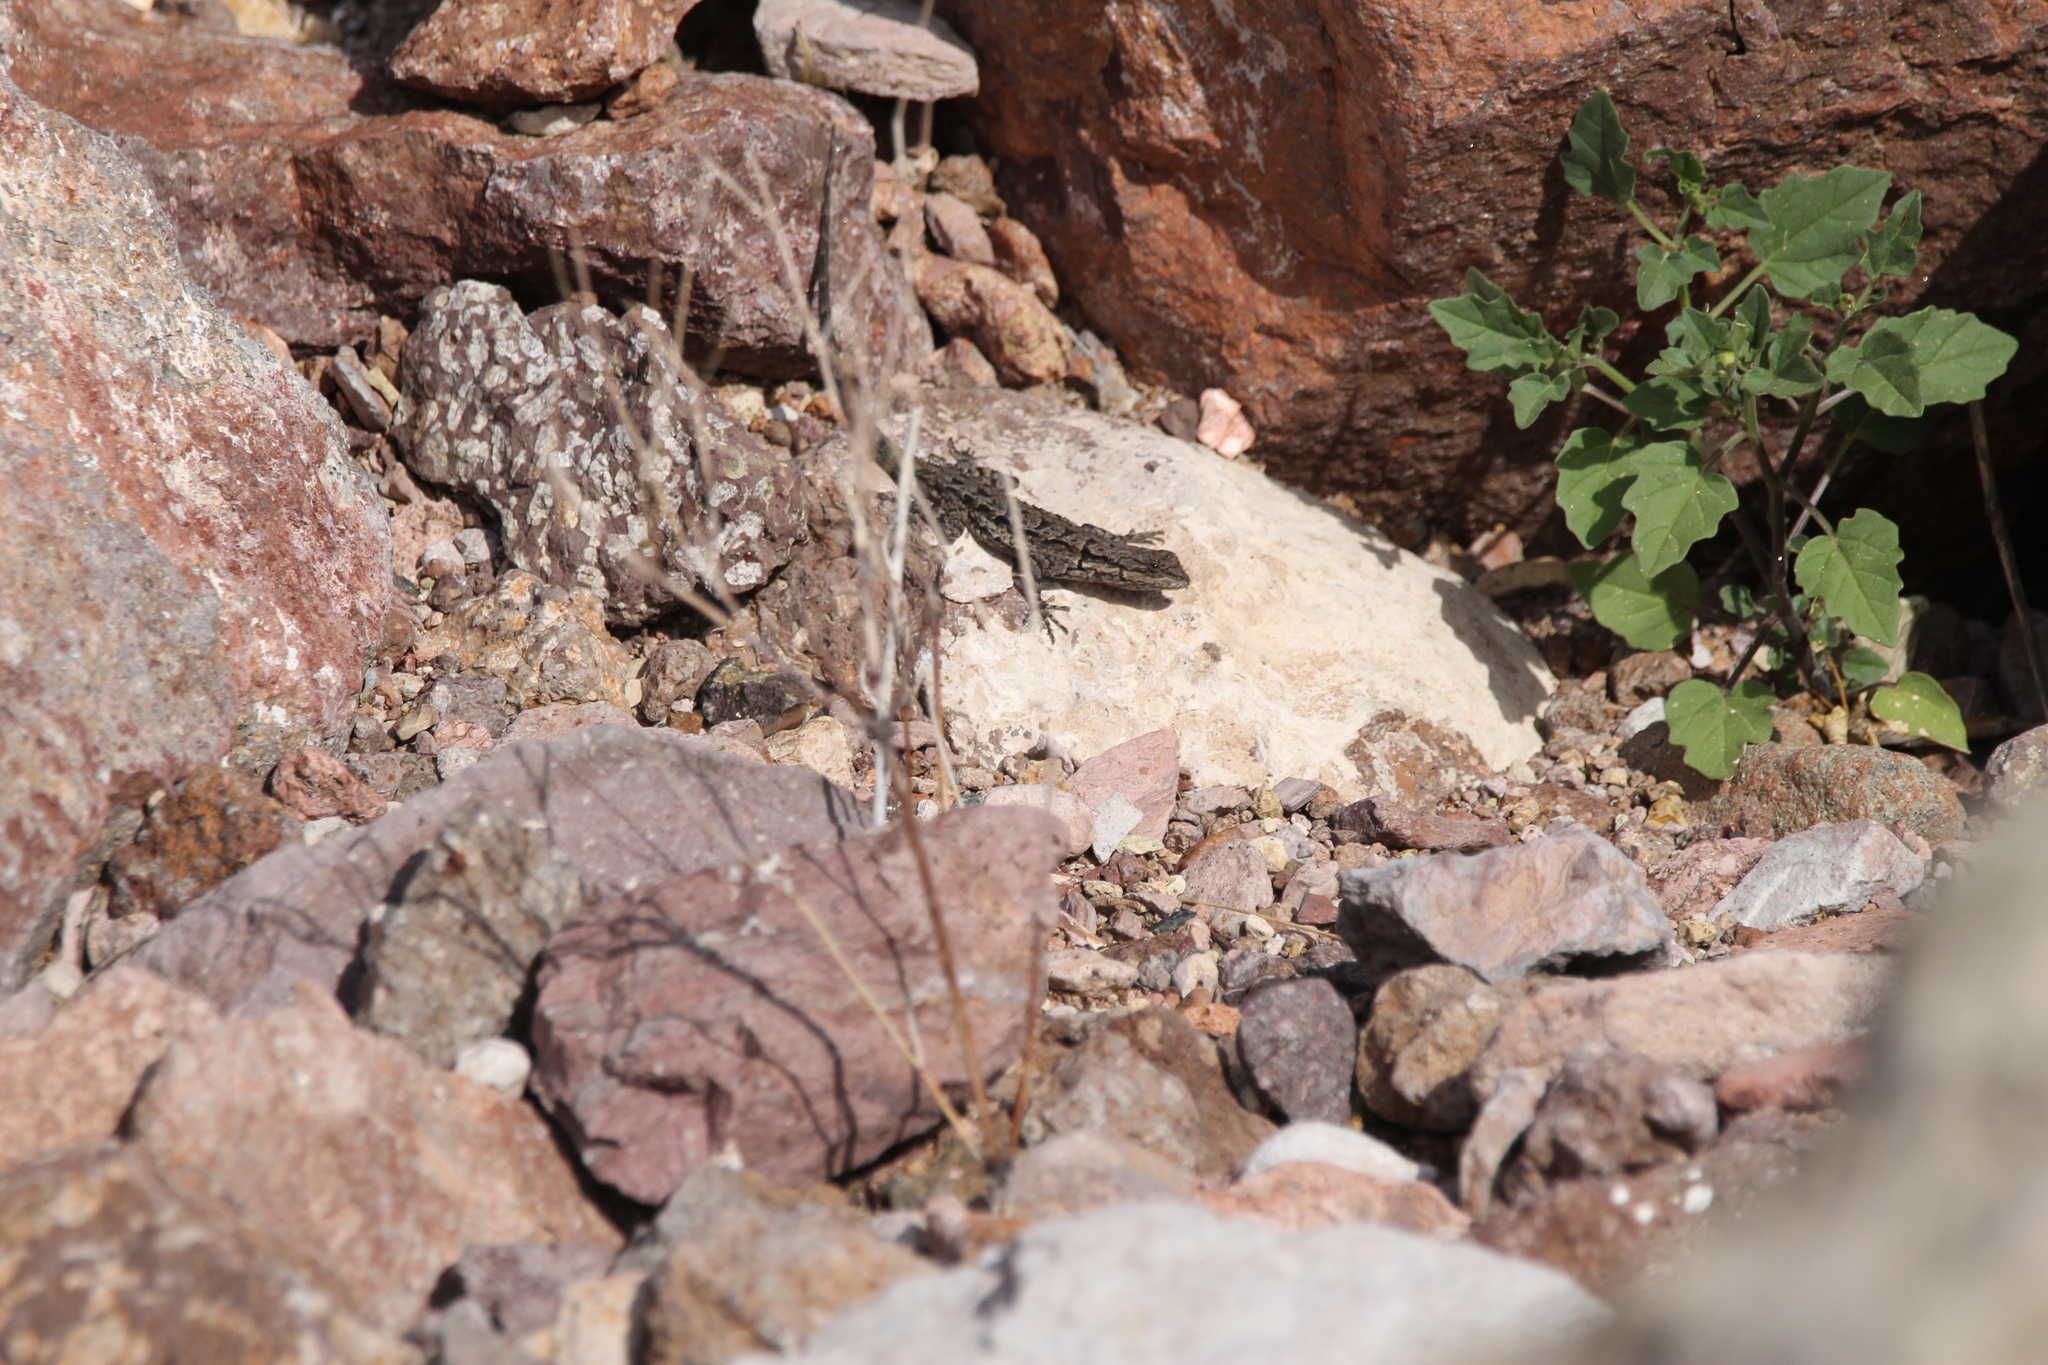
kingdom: Animalia
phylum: Chordata
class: Squamata
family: Phrynosomatidae
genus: Urosaurus
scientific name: Urosaurus ornatus
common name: Ornate tree lizard
